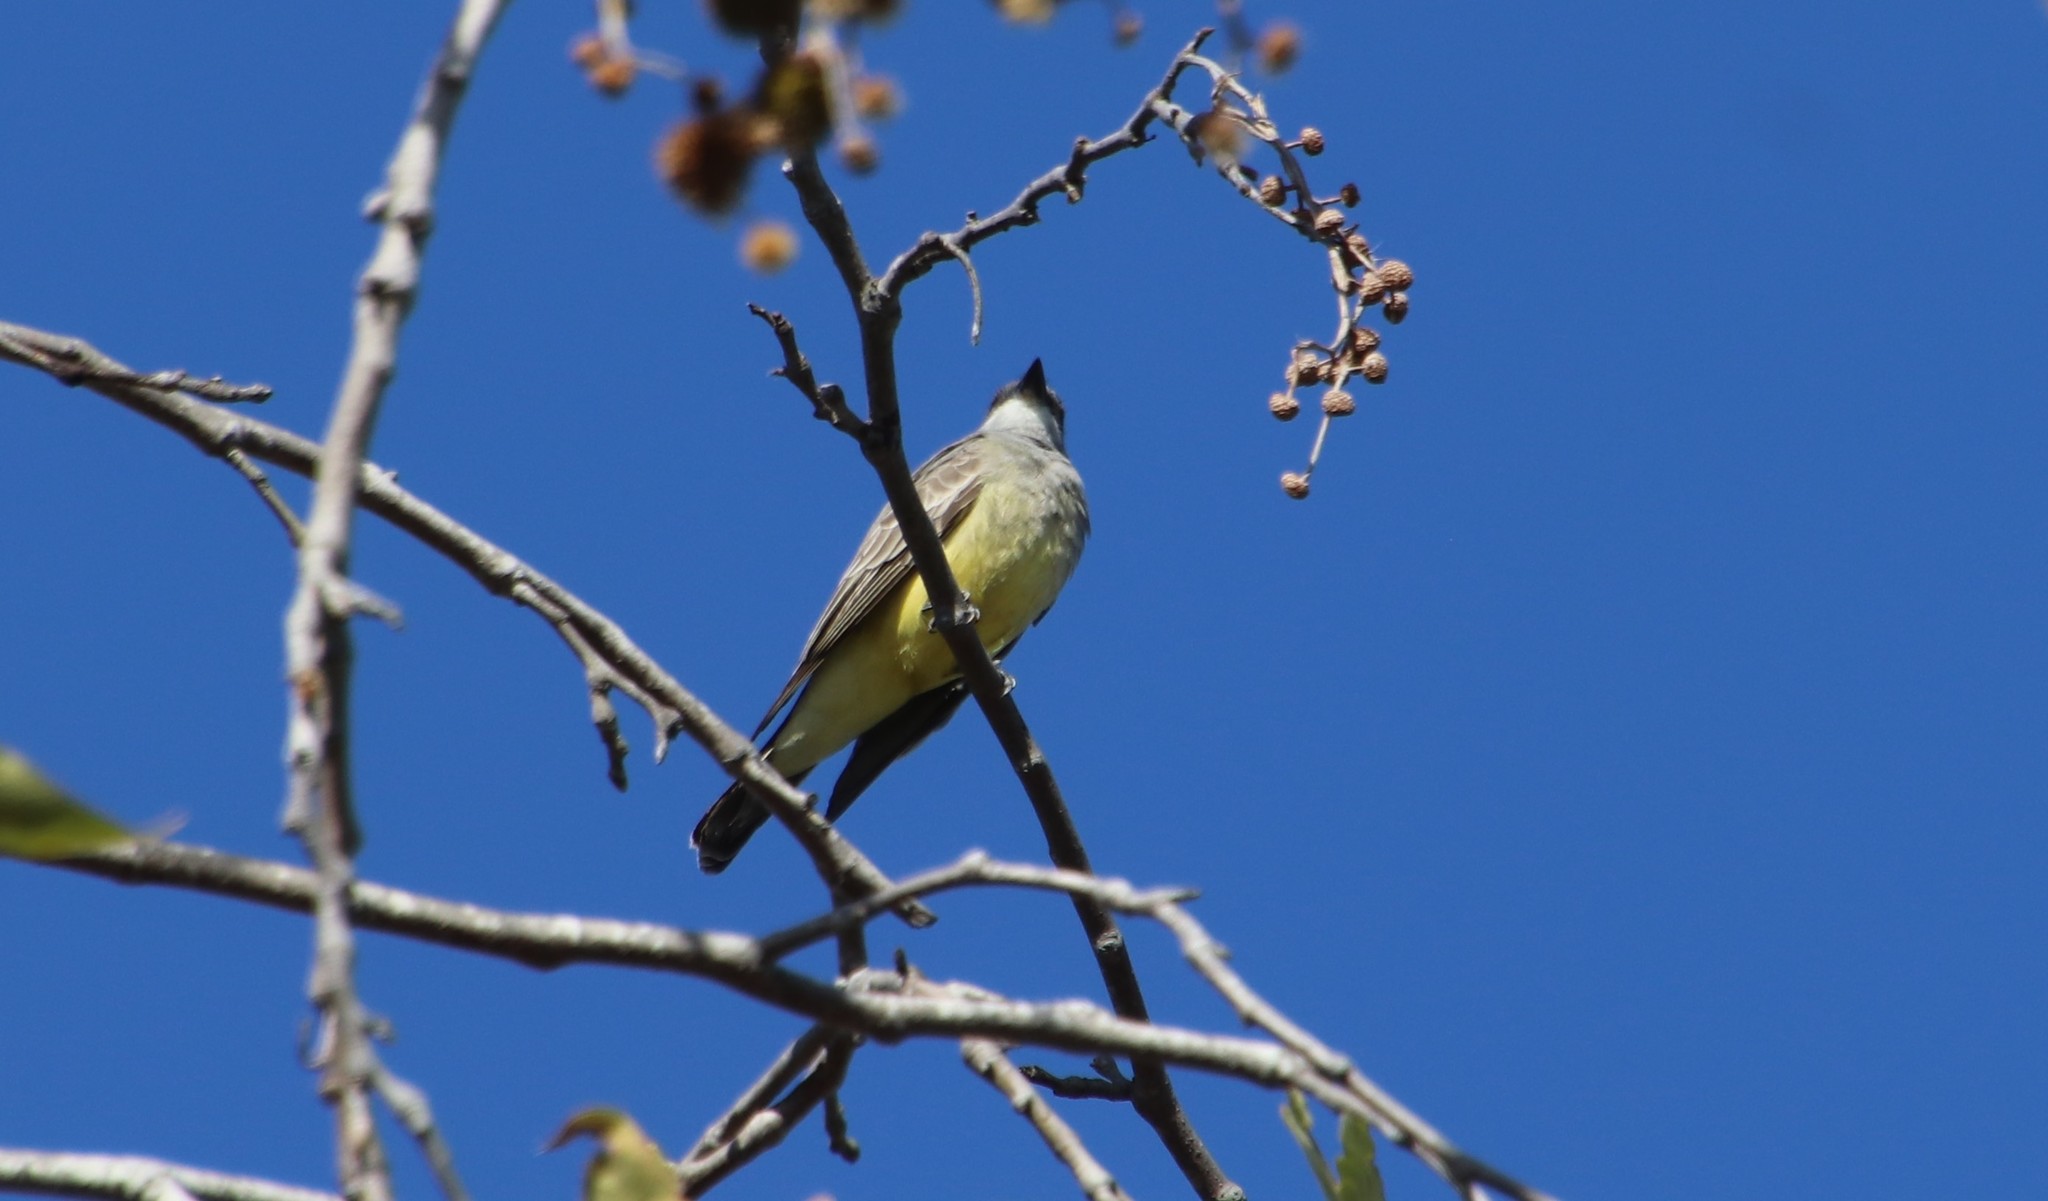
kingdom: Animalia
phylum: Chordata
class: Aves
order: Passeriformes
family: Tyrannidae
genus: Tyrannus
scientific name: Tyrannus vociferans
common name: Cassin's kingbird
